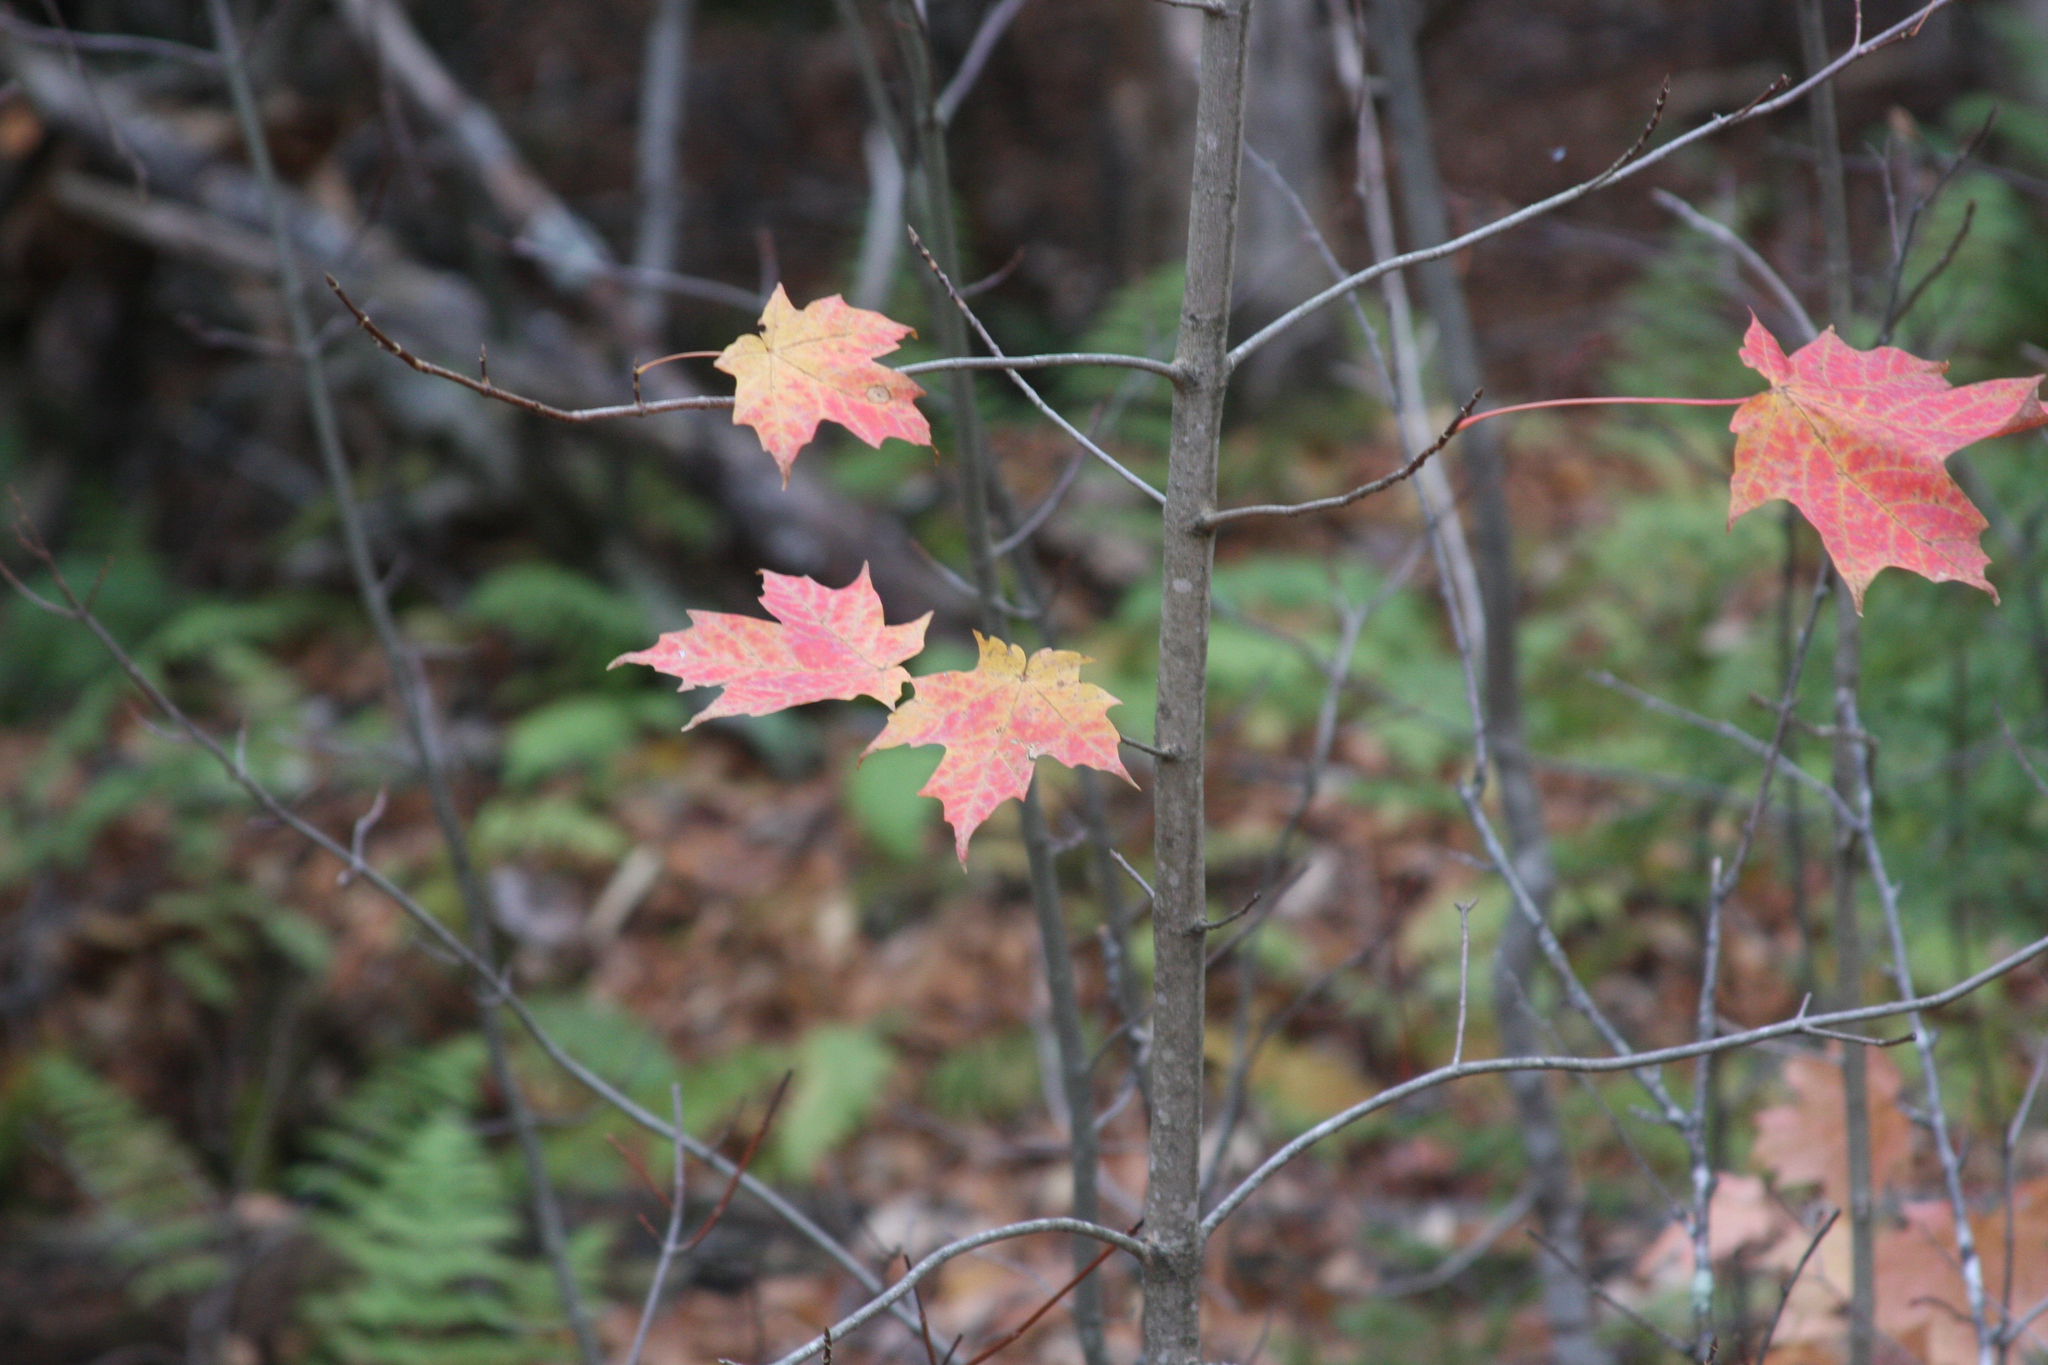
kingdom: Plantae
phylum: Tracheophyta
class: Magnoliopsida
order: Sapindales
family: Sapindaceae
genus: Acer
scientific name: Acer saccharum
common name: Sugar maple
